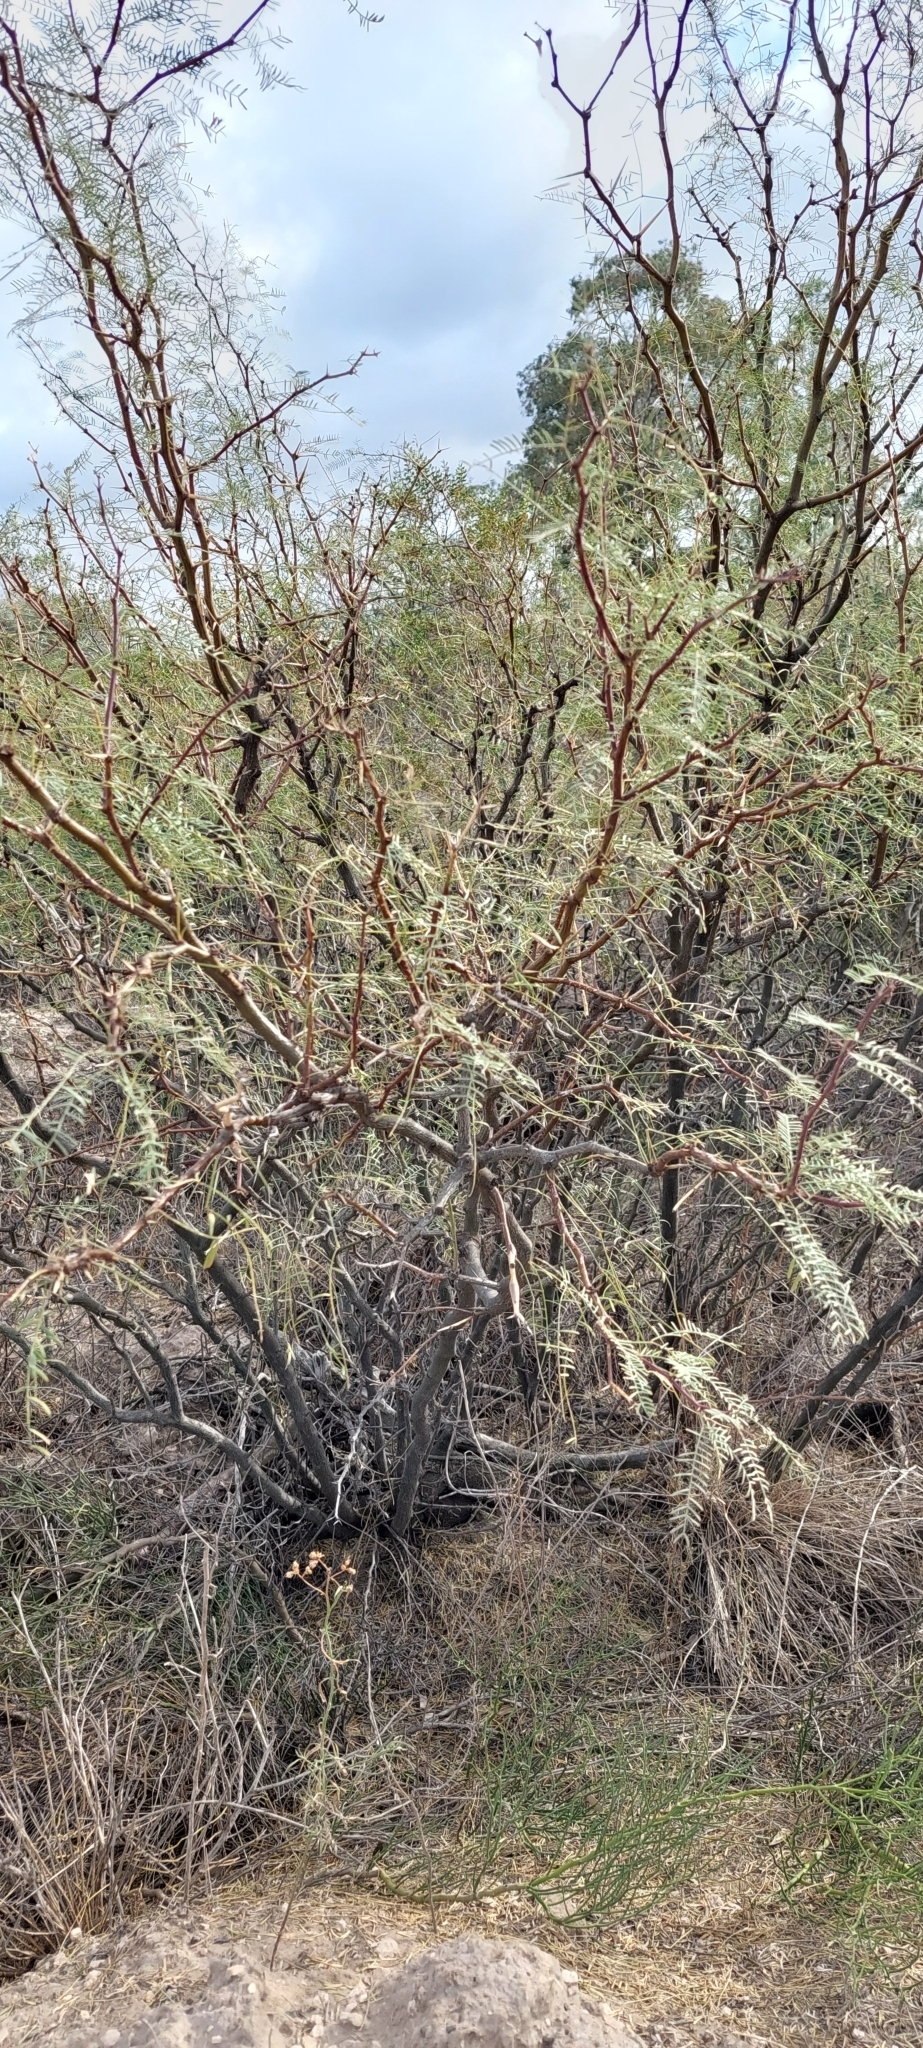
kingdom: Plantae
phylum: Tracheophyta
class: Magnoliopsida
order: Fabales
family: Fabaceae
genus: Prosopis
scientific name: Prosopis flexuosa
